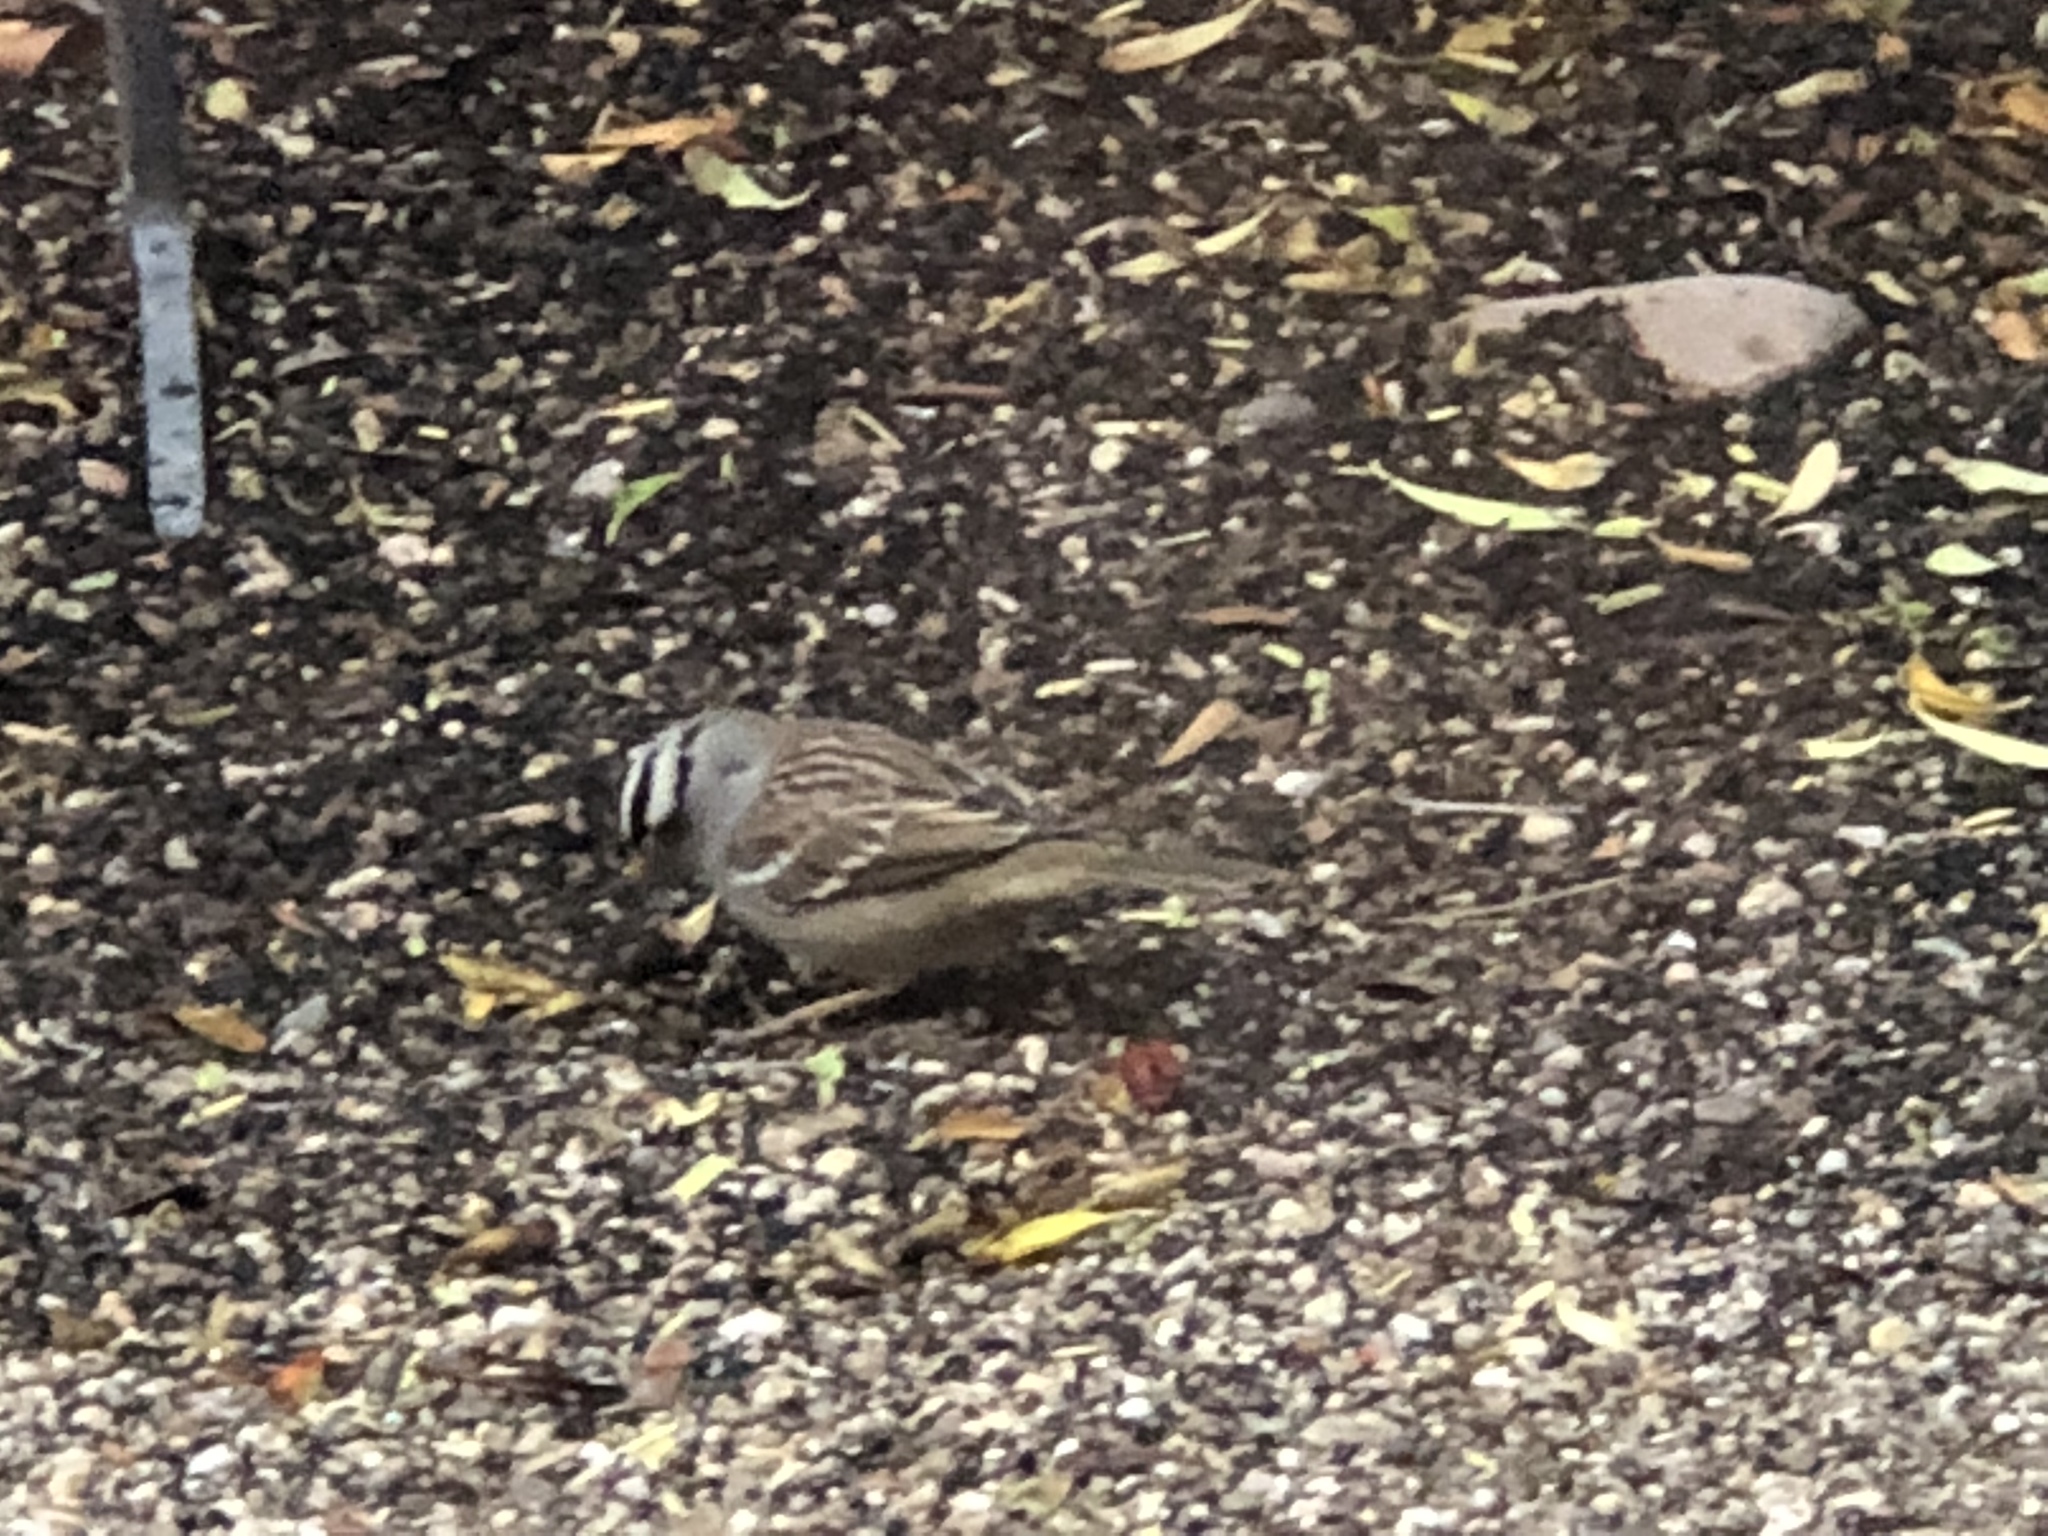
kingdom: Animalia
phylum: Chordata
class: Aves
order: Passeriformes
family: Passerellidae
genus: Zonotrichia
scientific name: Zonotrichia leucophrys
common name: White-crowned sparrow
